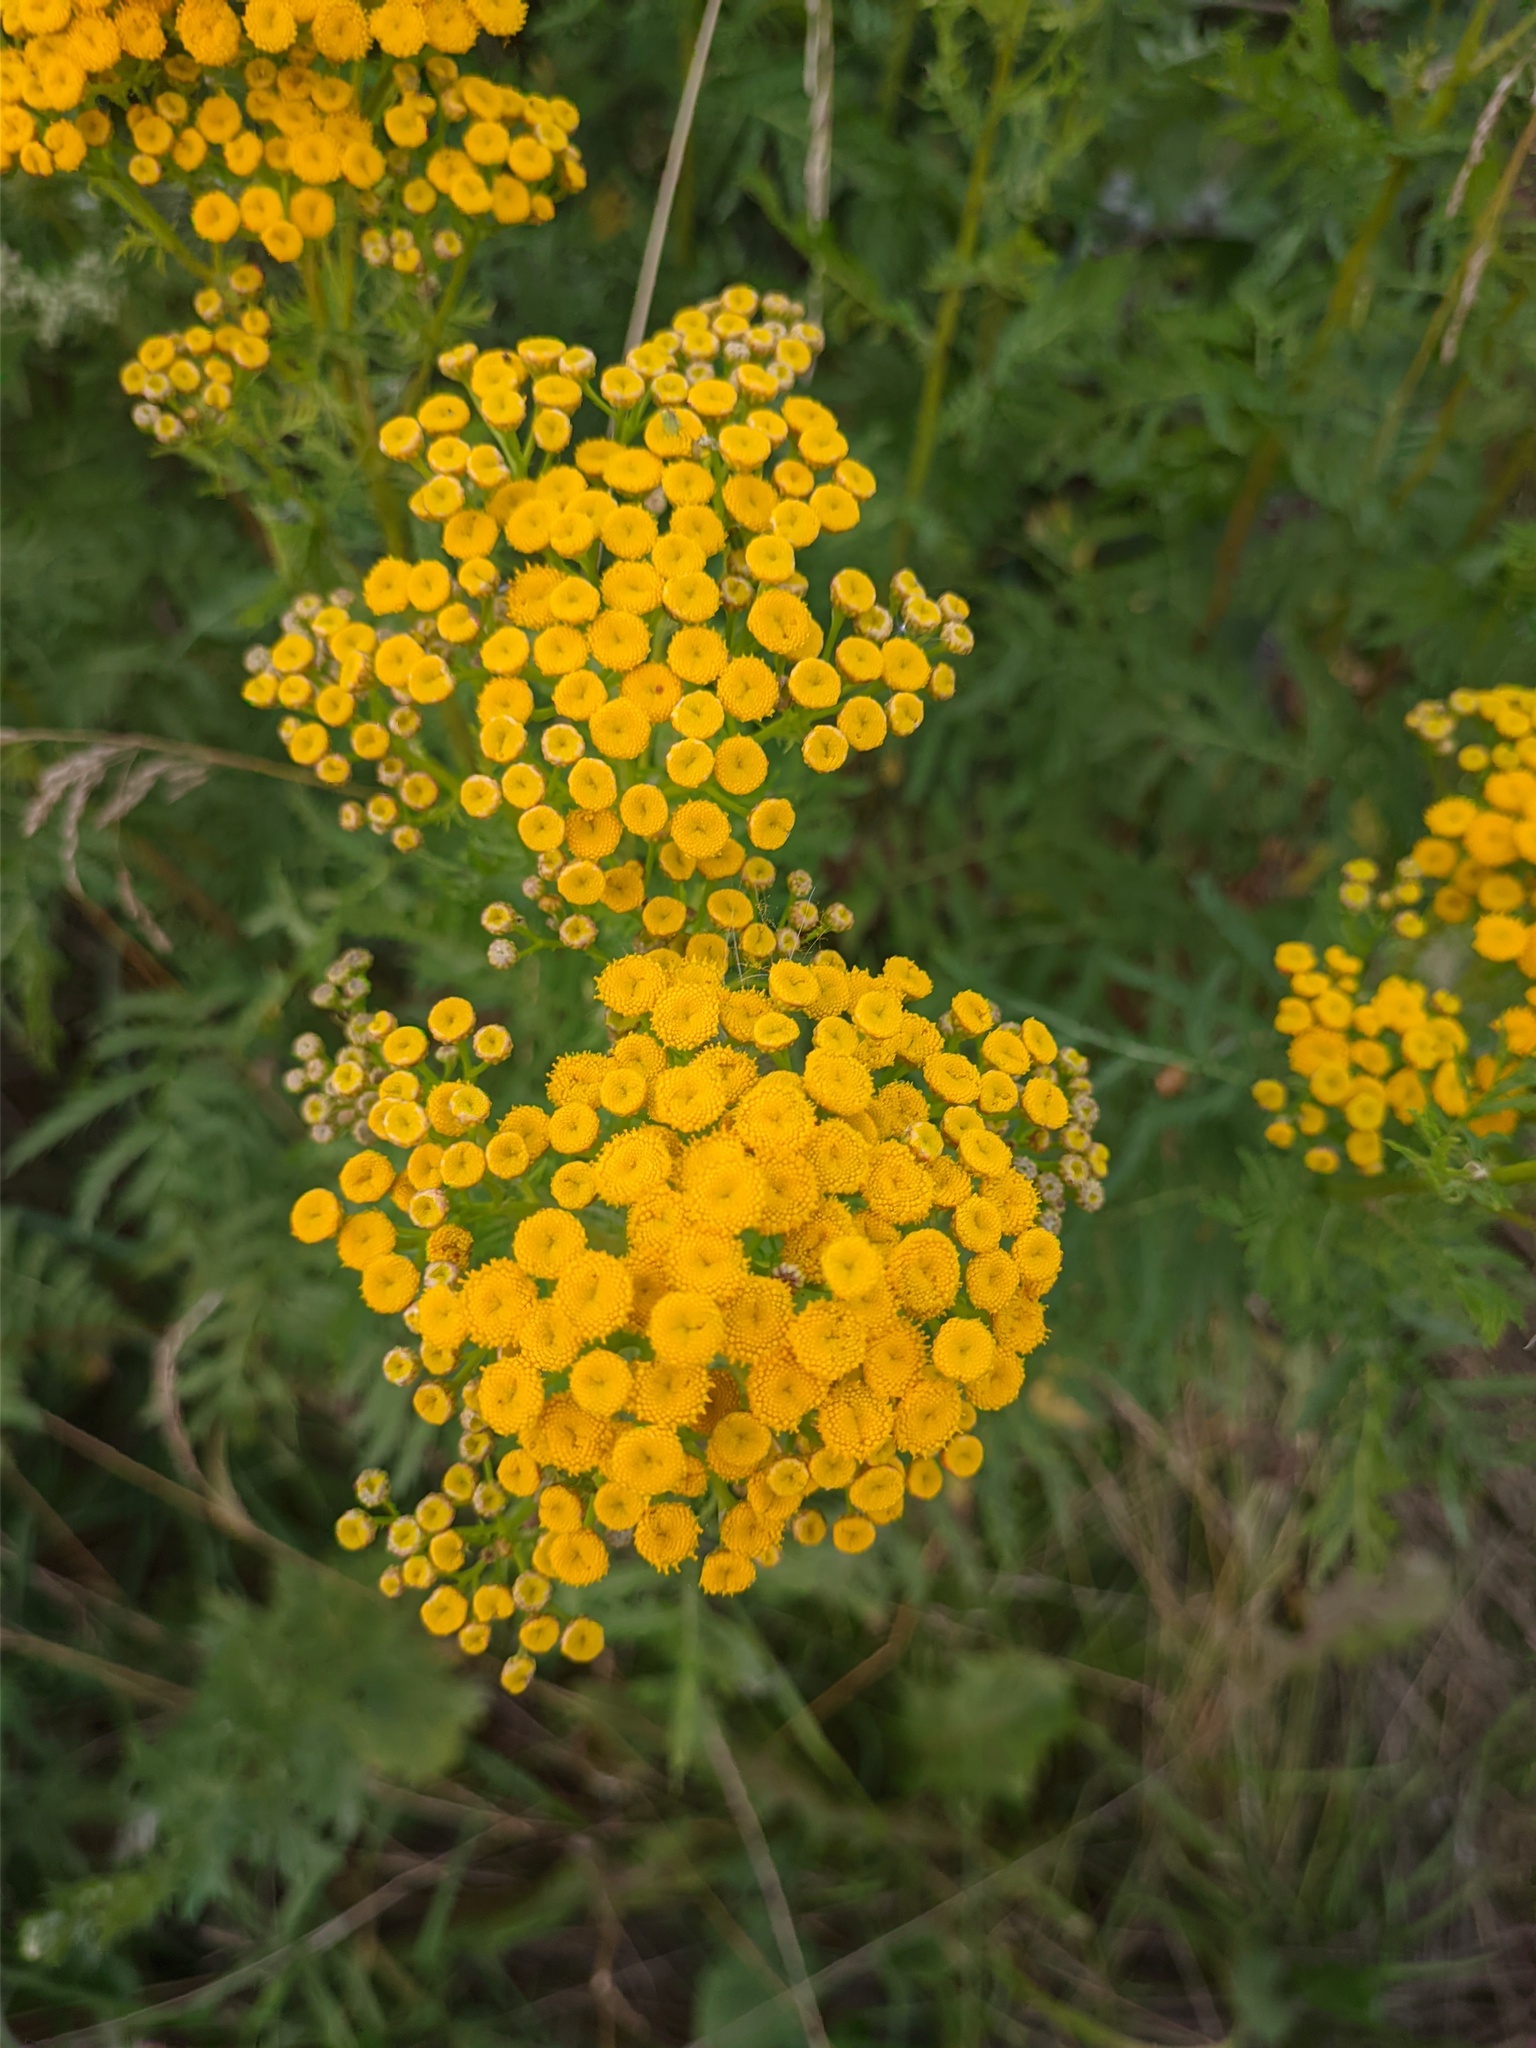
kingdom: Plantae
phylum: Tracheophyta
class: Magnoliopsida
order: Asterales
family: Asteraceae
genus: Tanacetum
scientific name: Tanacetum vulgare
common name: Common tansy
